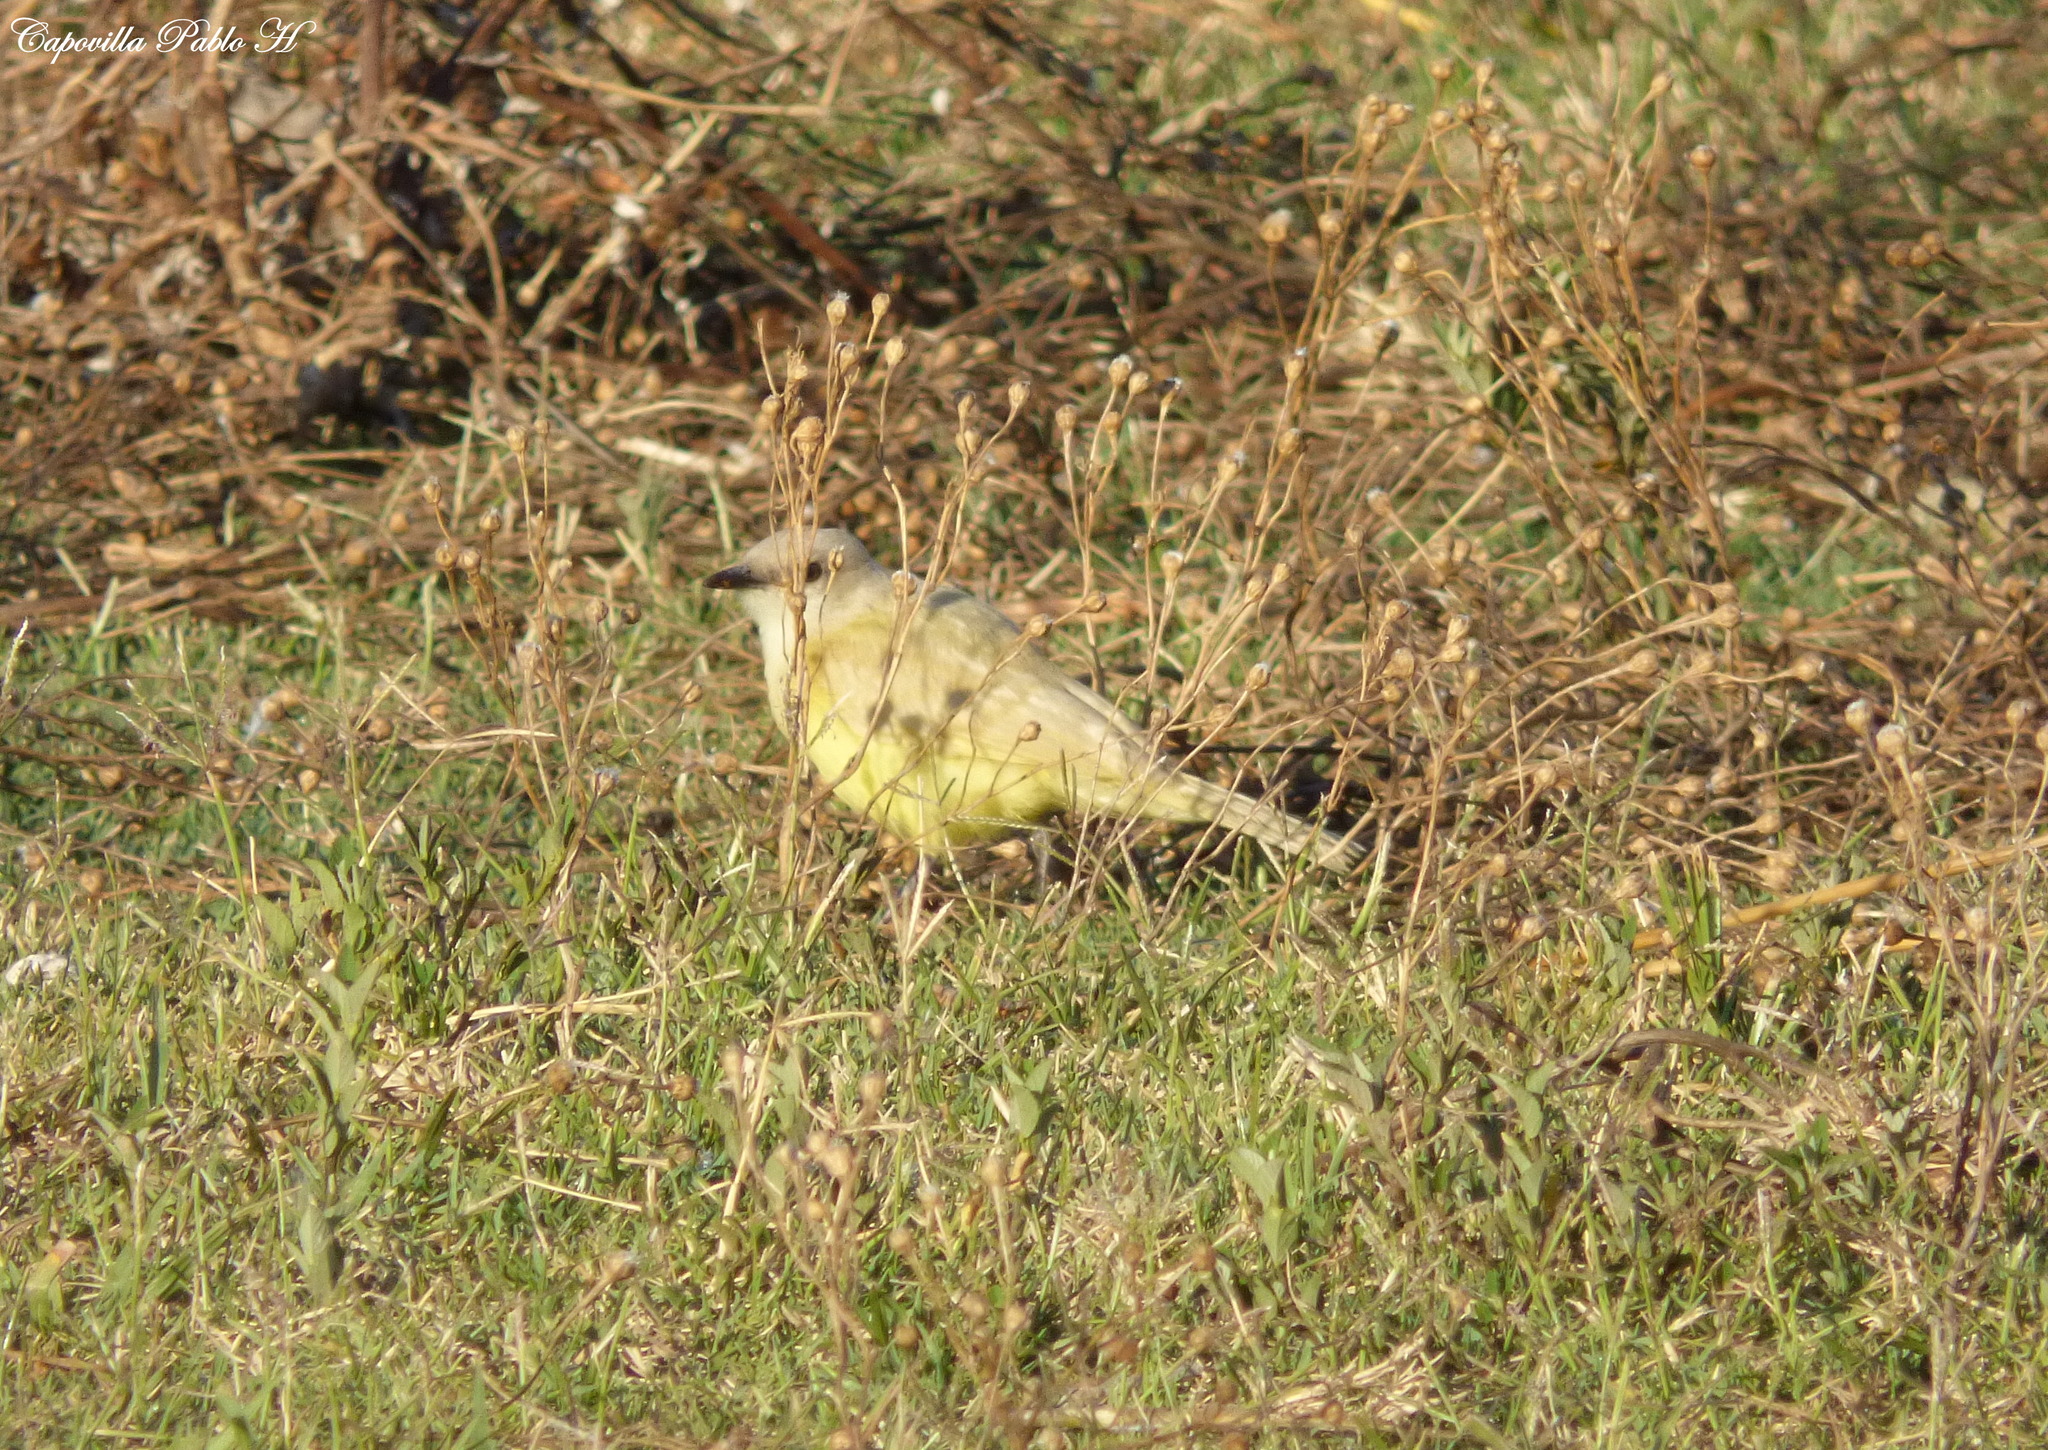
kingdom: Animalia
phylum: Chordata
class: Aves
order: Passeriformes
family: Tyrannidae
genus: Machetornis
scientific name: Machetornis rixosa
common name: Cattle tyrant
